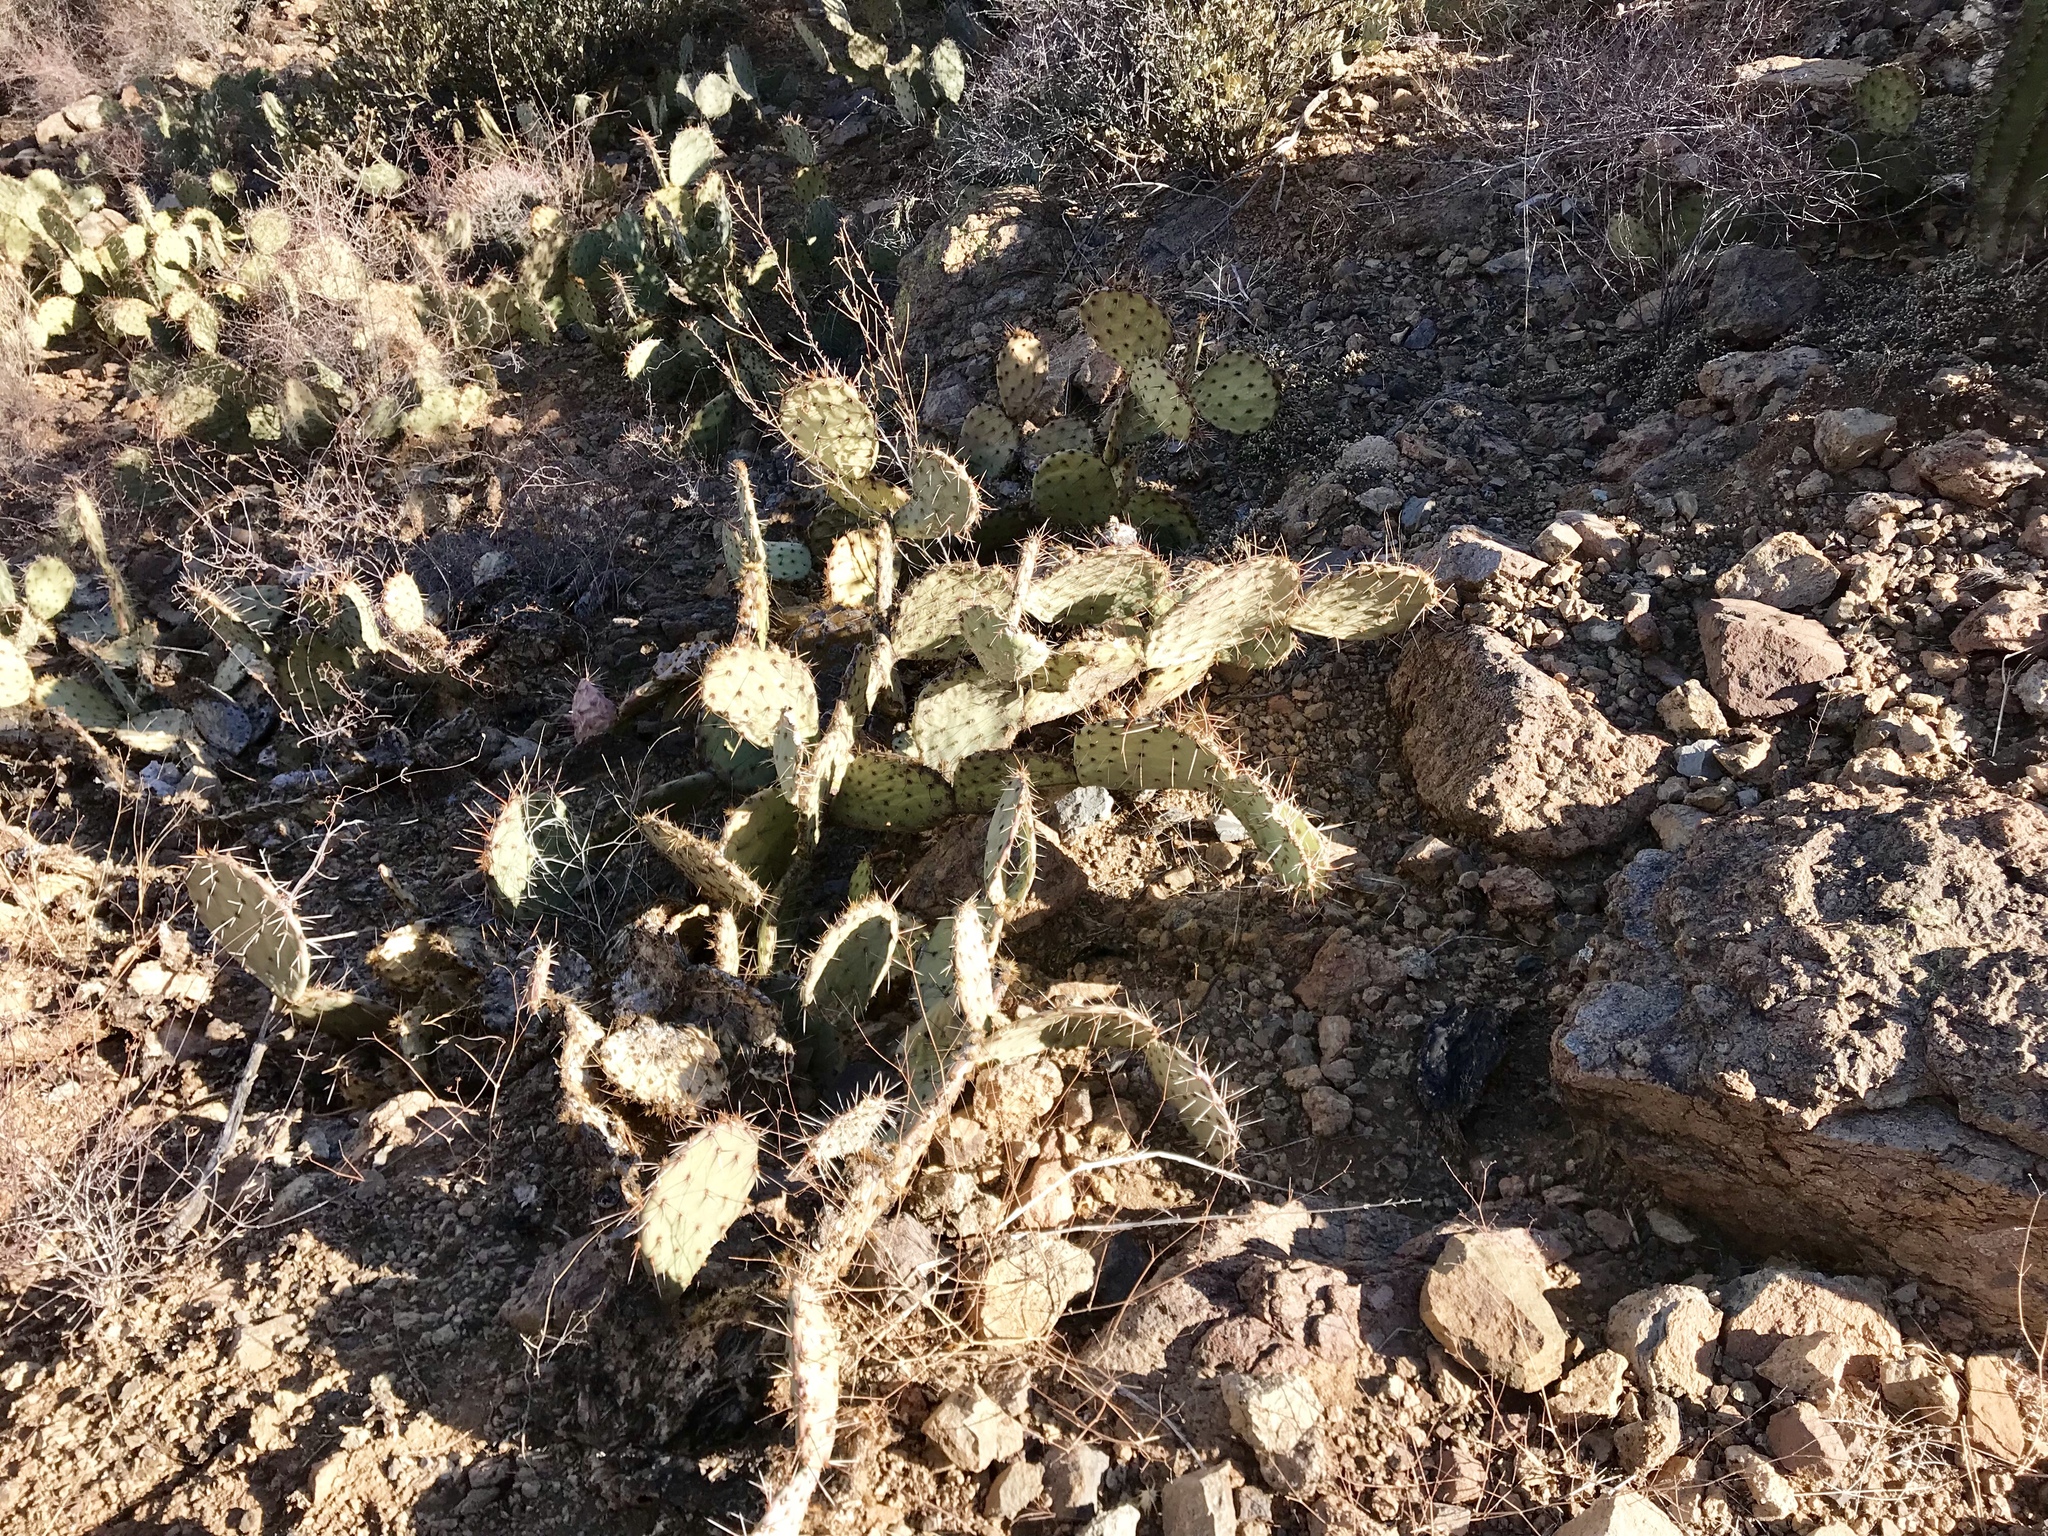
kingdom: Plantae
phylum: Tracheophyta
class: Magnoliopsida
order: Caryophyllales
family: Cactaceae
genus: Opuntia
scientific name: Opuntia phaeacantha
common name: New mexico prickly-pear
